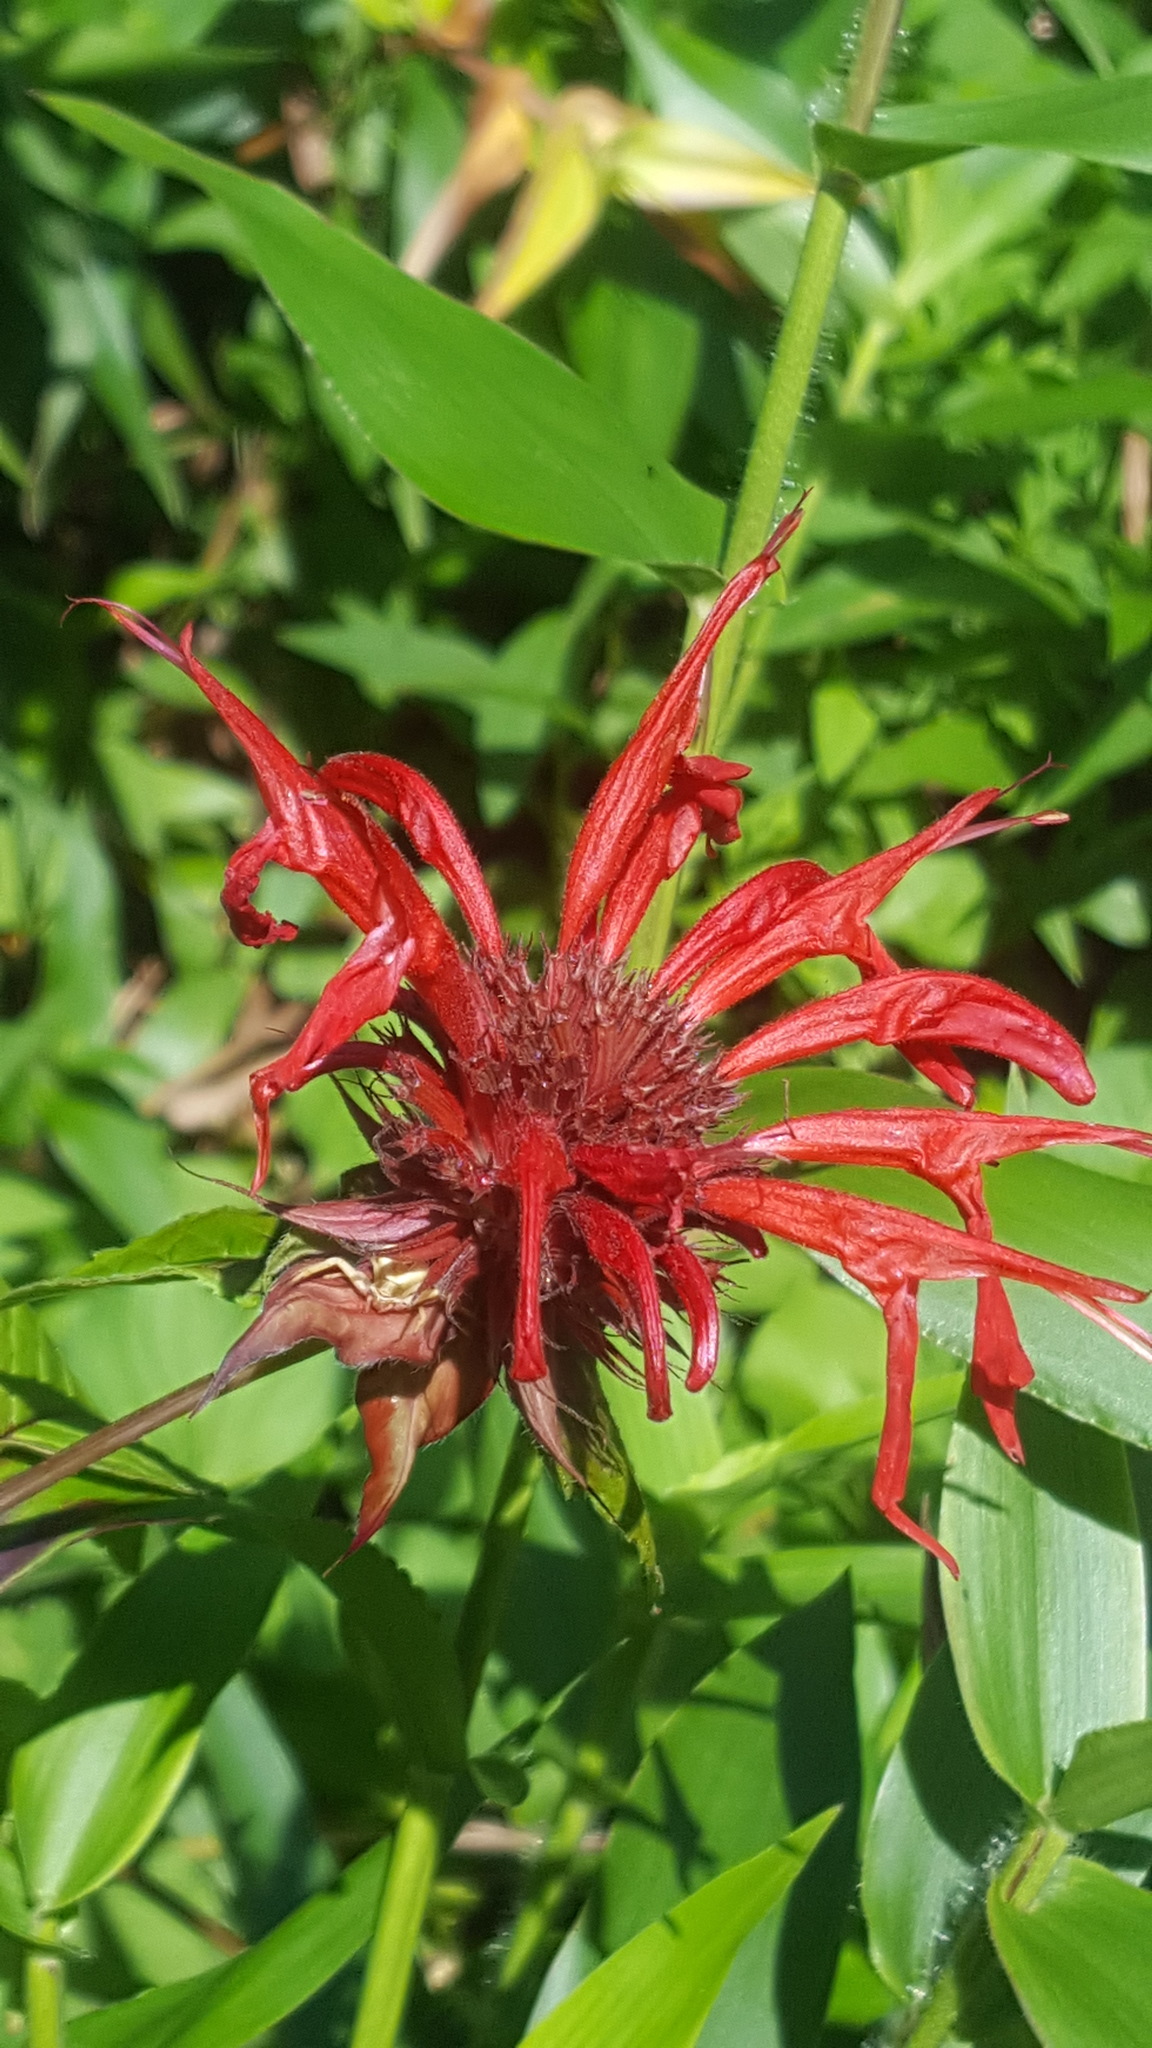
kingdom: Plantae
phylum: Tracheophyta
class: Magnoliopsida
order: Lamiales
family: Lamiaceae
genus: Monarda
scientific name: Monarda didyma
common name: Beebalm
